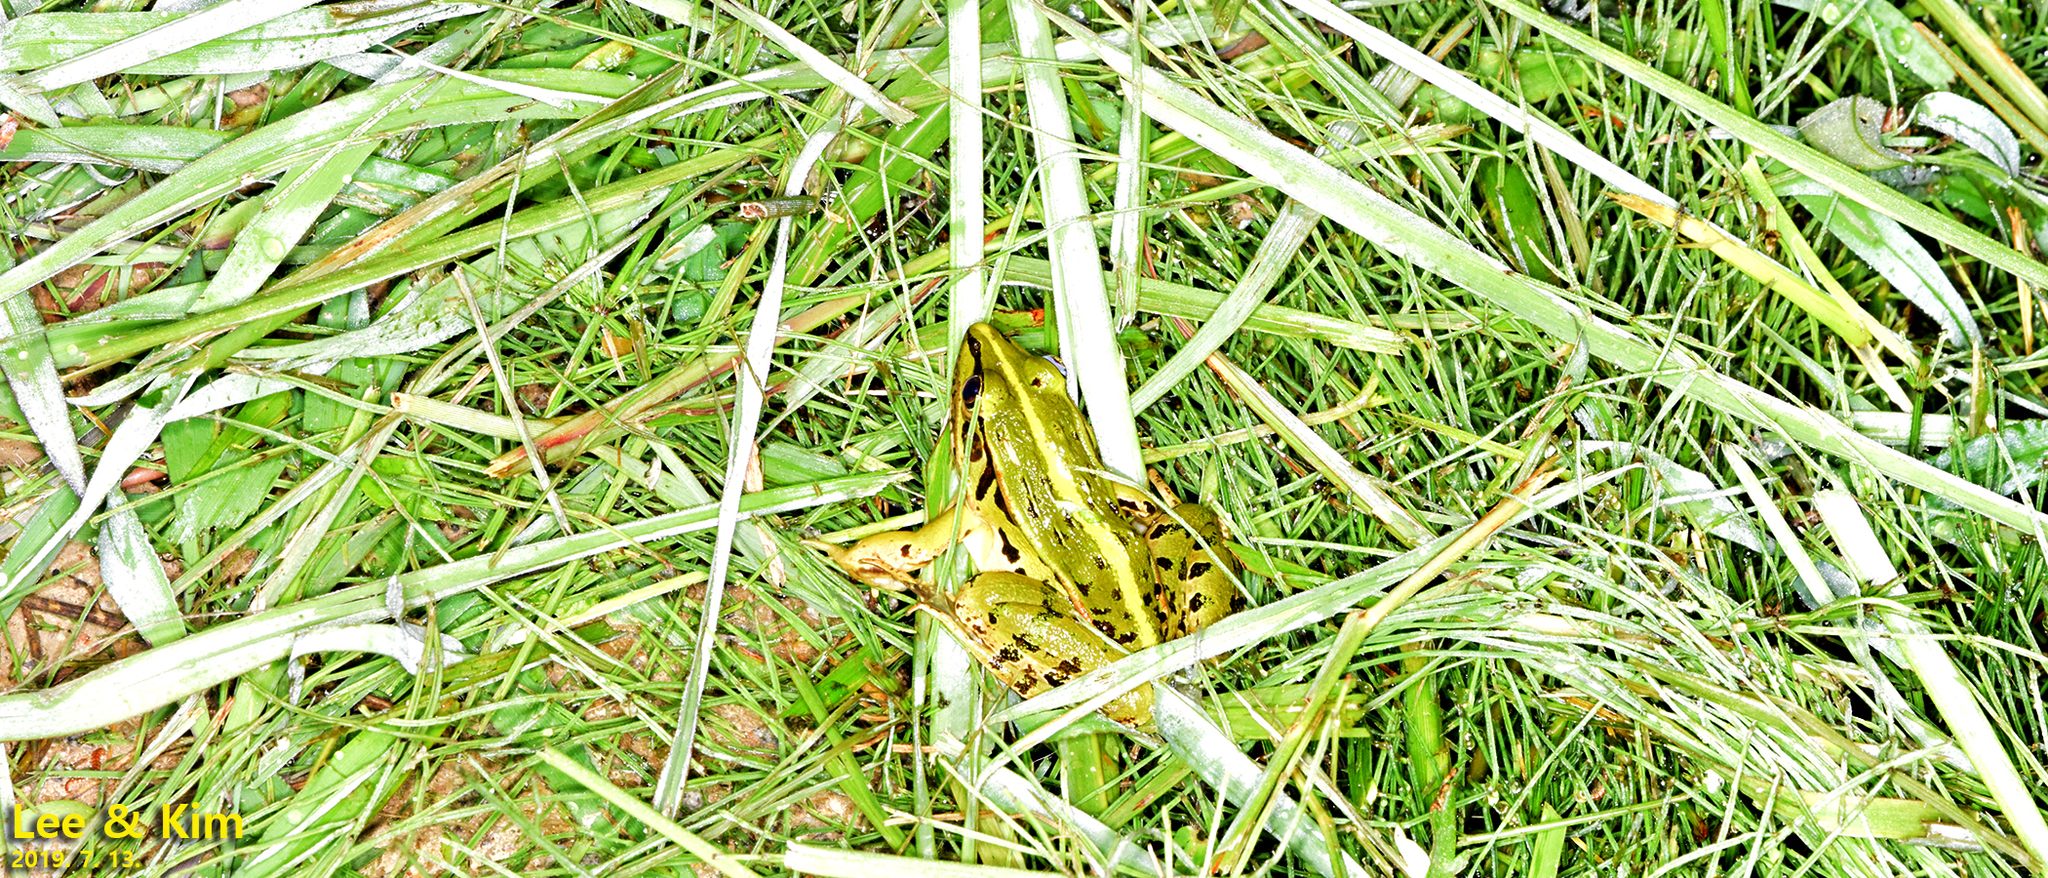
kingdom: Animalia
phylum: Chordata
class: Amphibia
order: Anura
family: Ranidae
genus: Pelophylax
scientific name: Pelophylax nigromaculatus
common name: Black-spotted pond frog
